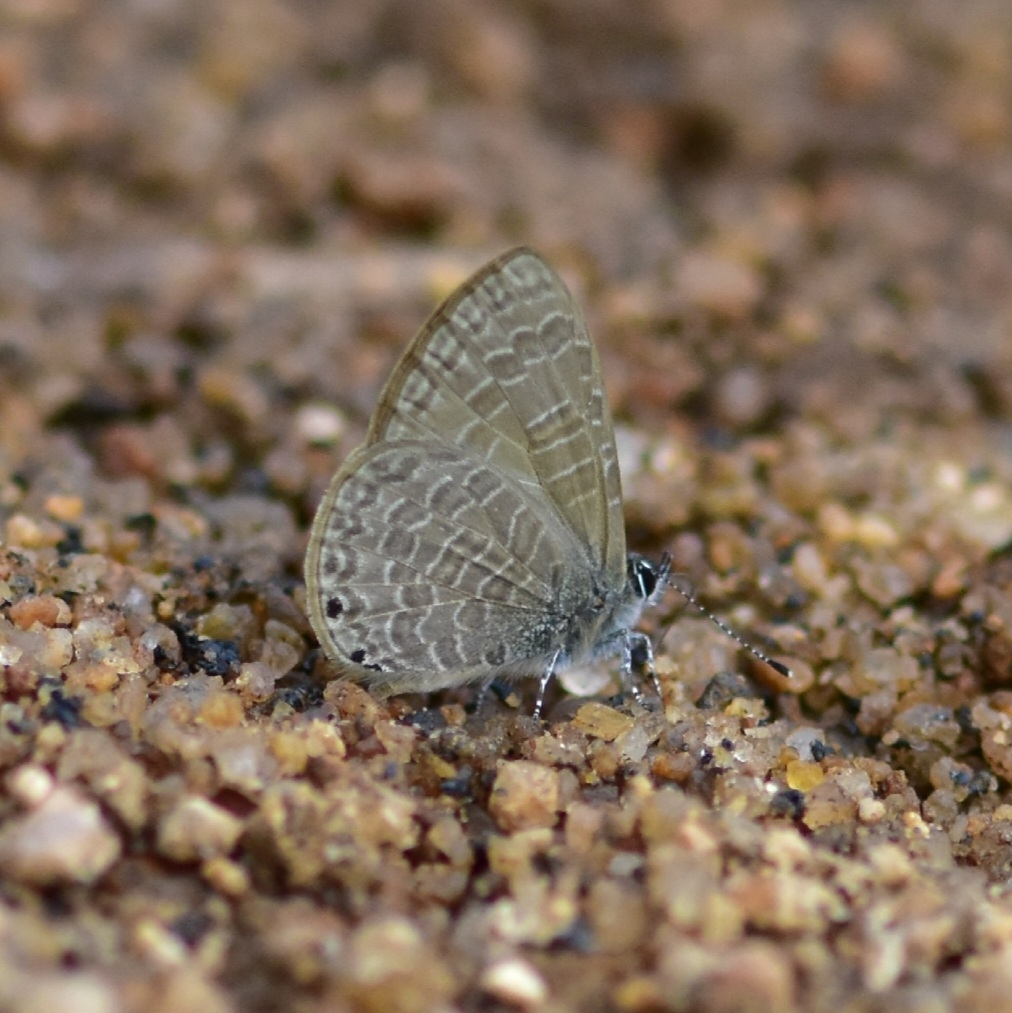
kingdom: Animalia
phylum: Arthropoda
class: Insecta
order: Lepidoptera
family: Lycaenidae
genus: Petrelaea
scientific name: Petrelaea dana
